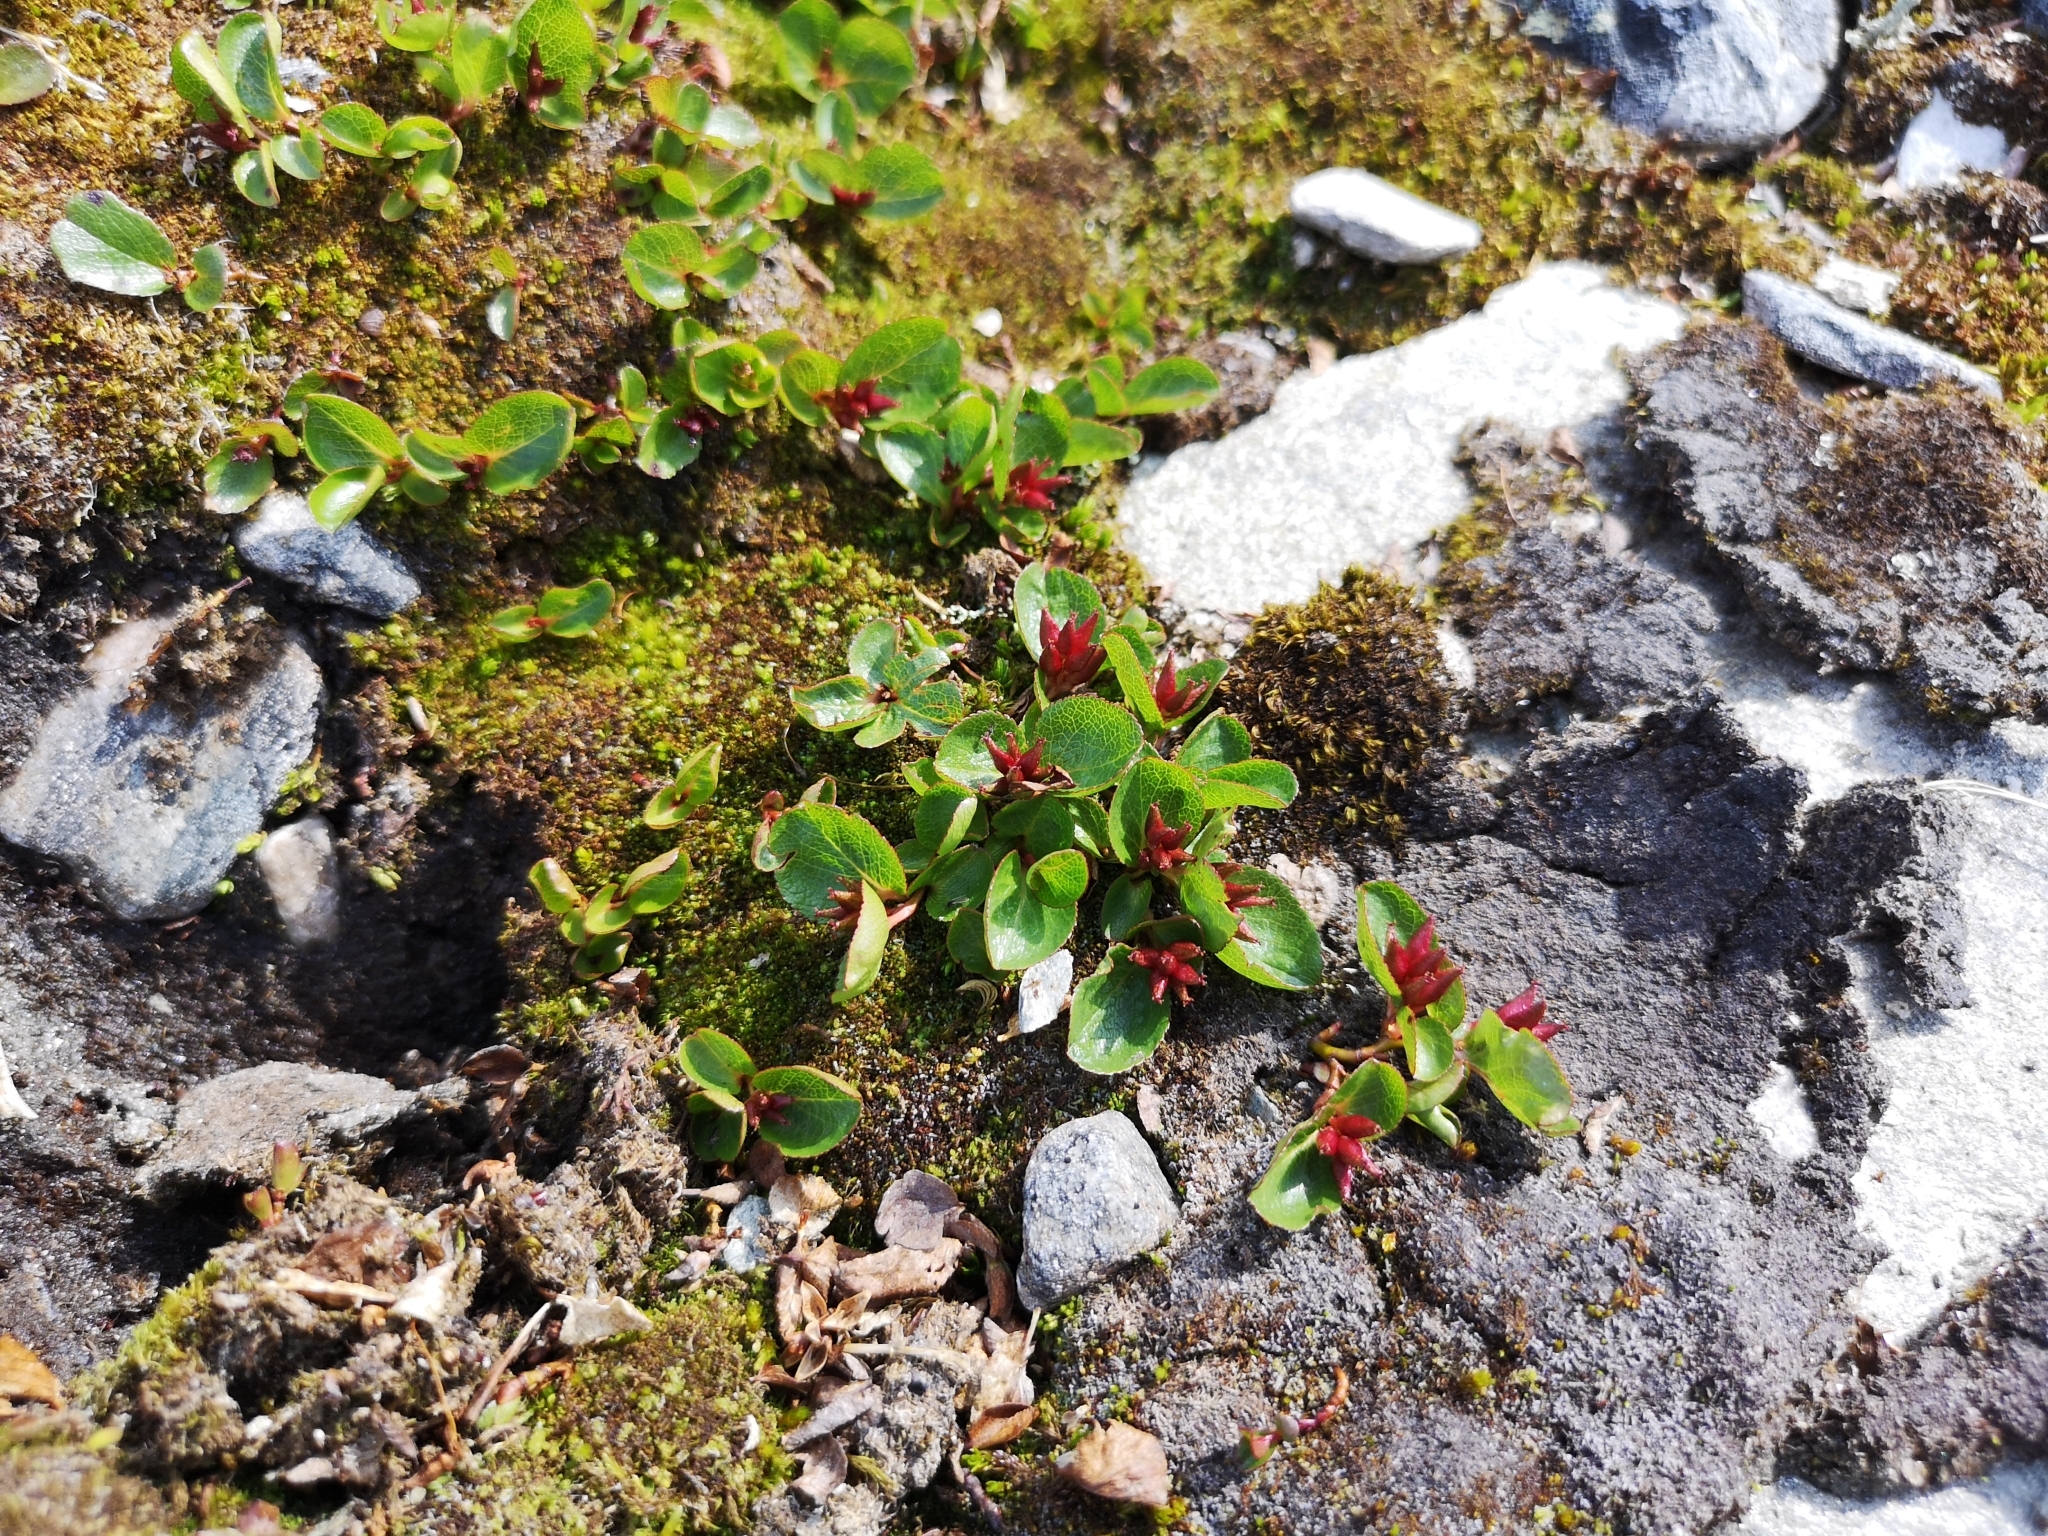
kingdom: Plantae
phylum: Tracheophyta
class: Magnoliopsida
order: Malpighiales
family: Salicaceae
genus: Salix
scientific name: Salix herbacea
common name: Dwarf willow
